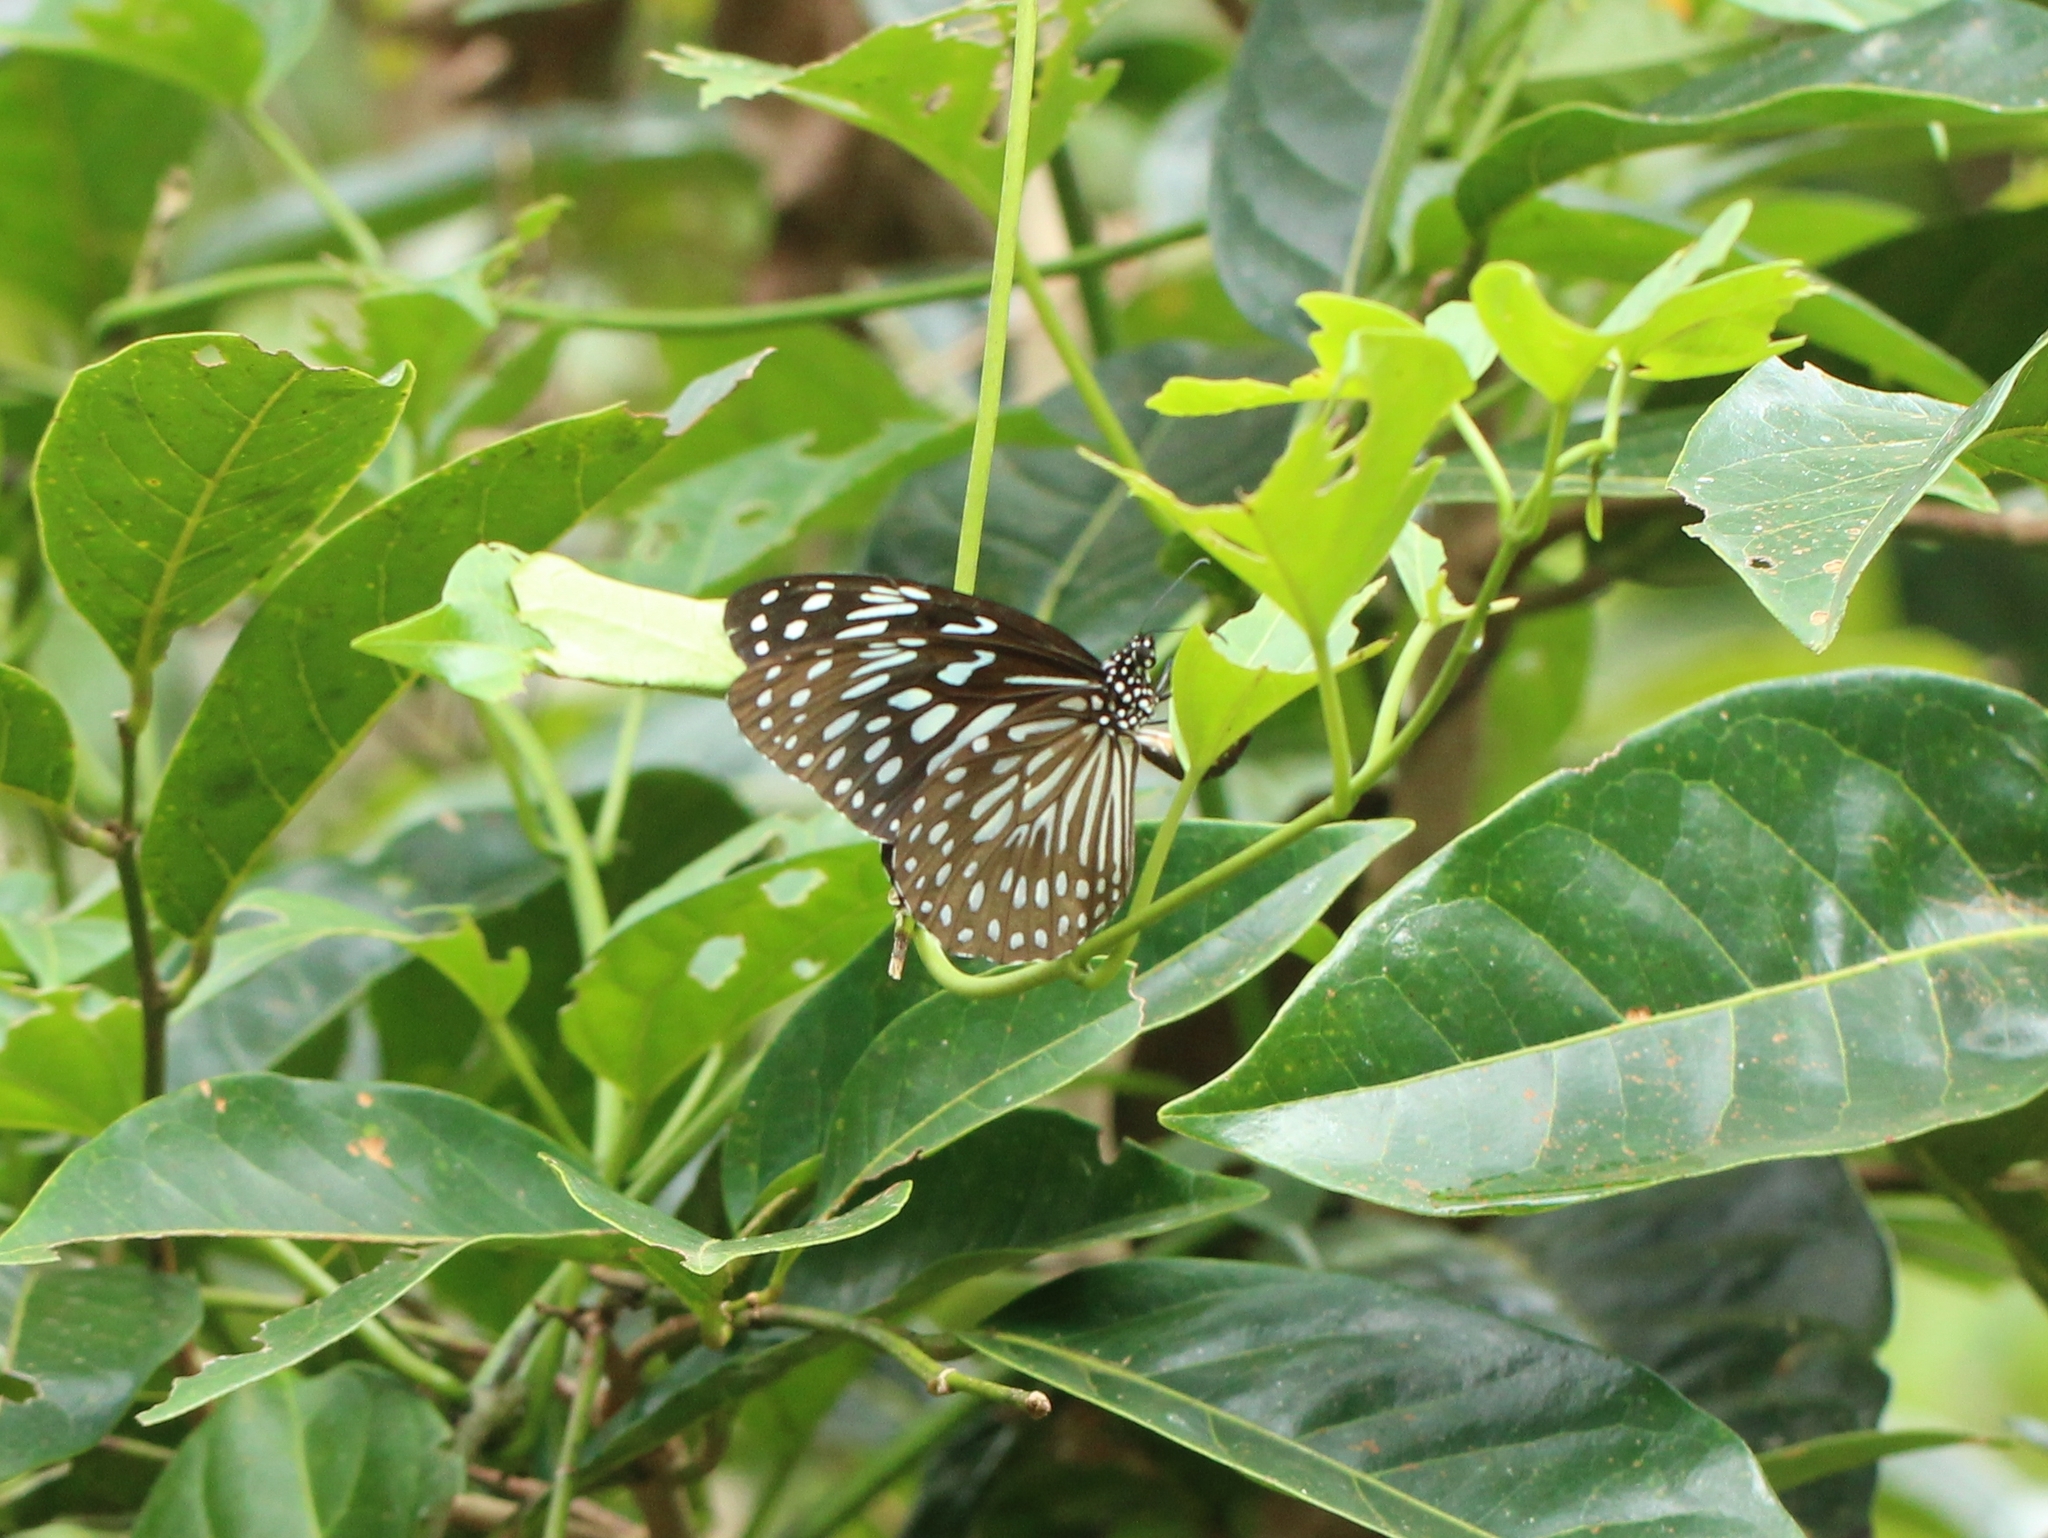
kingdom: Animalia
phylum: Arthropoda
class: Insecta
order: Lepidoptera
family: Nymphalidae
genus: Tirumala
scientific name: Tirumala septentrionis
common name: Dark blue tiger butterfly
